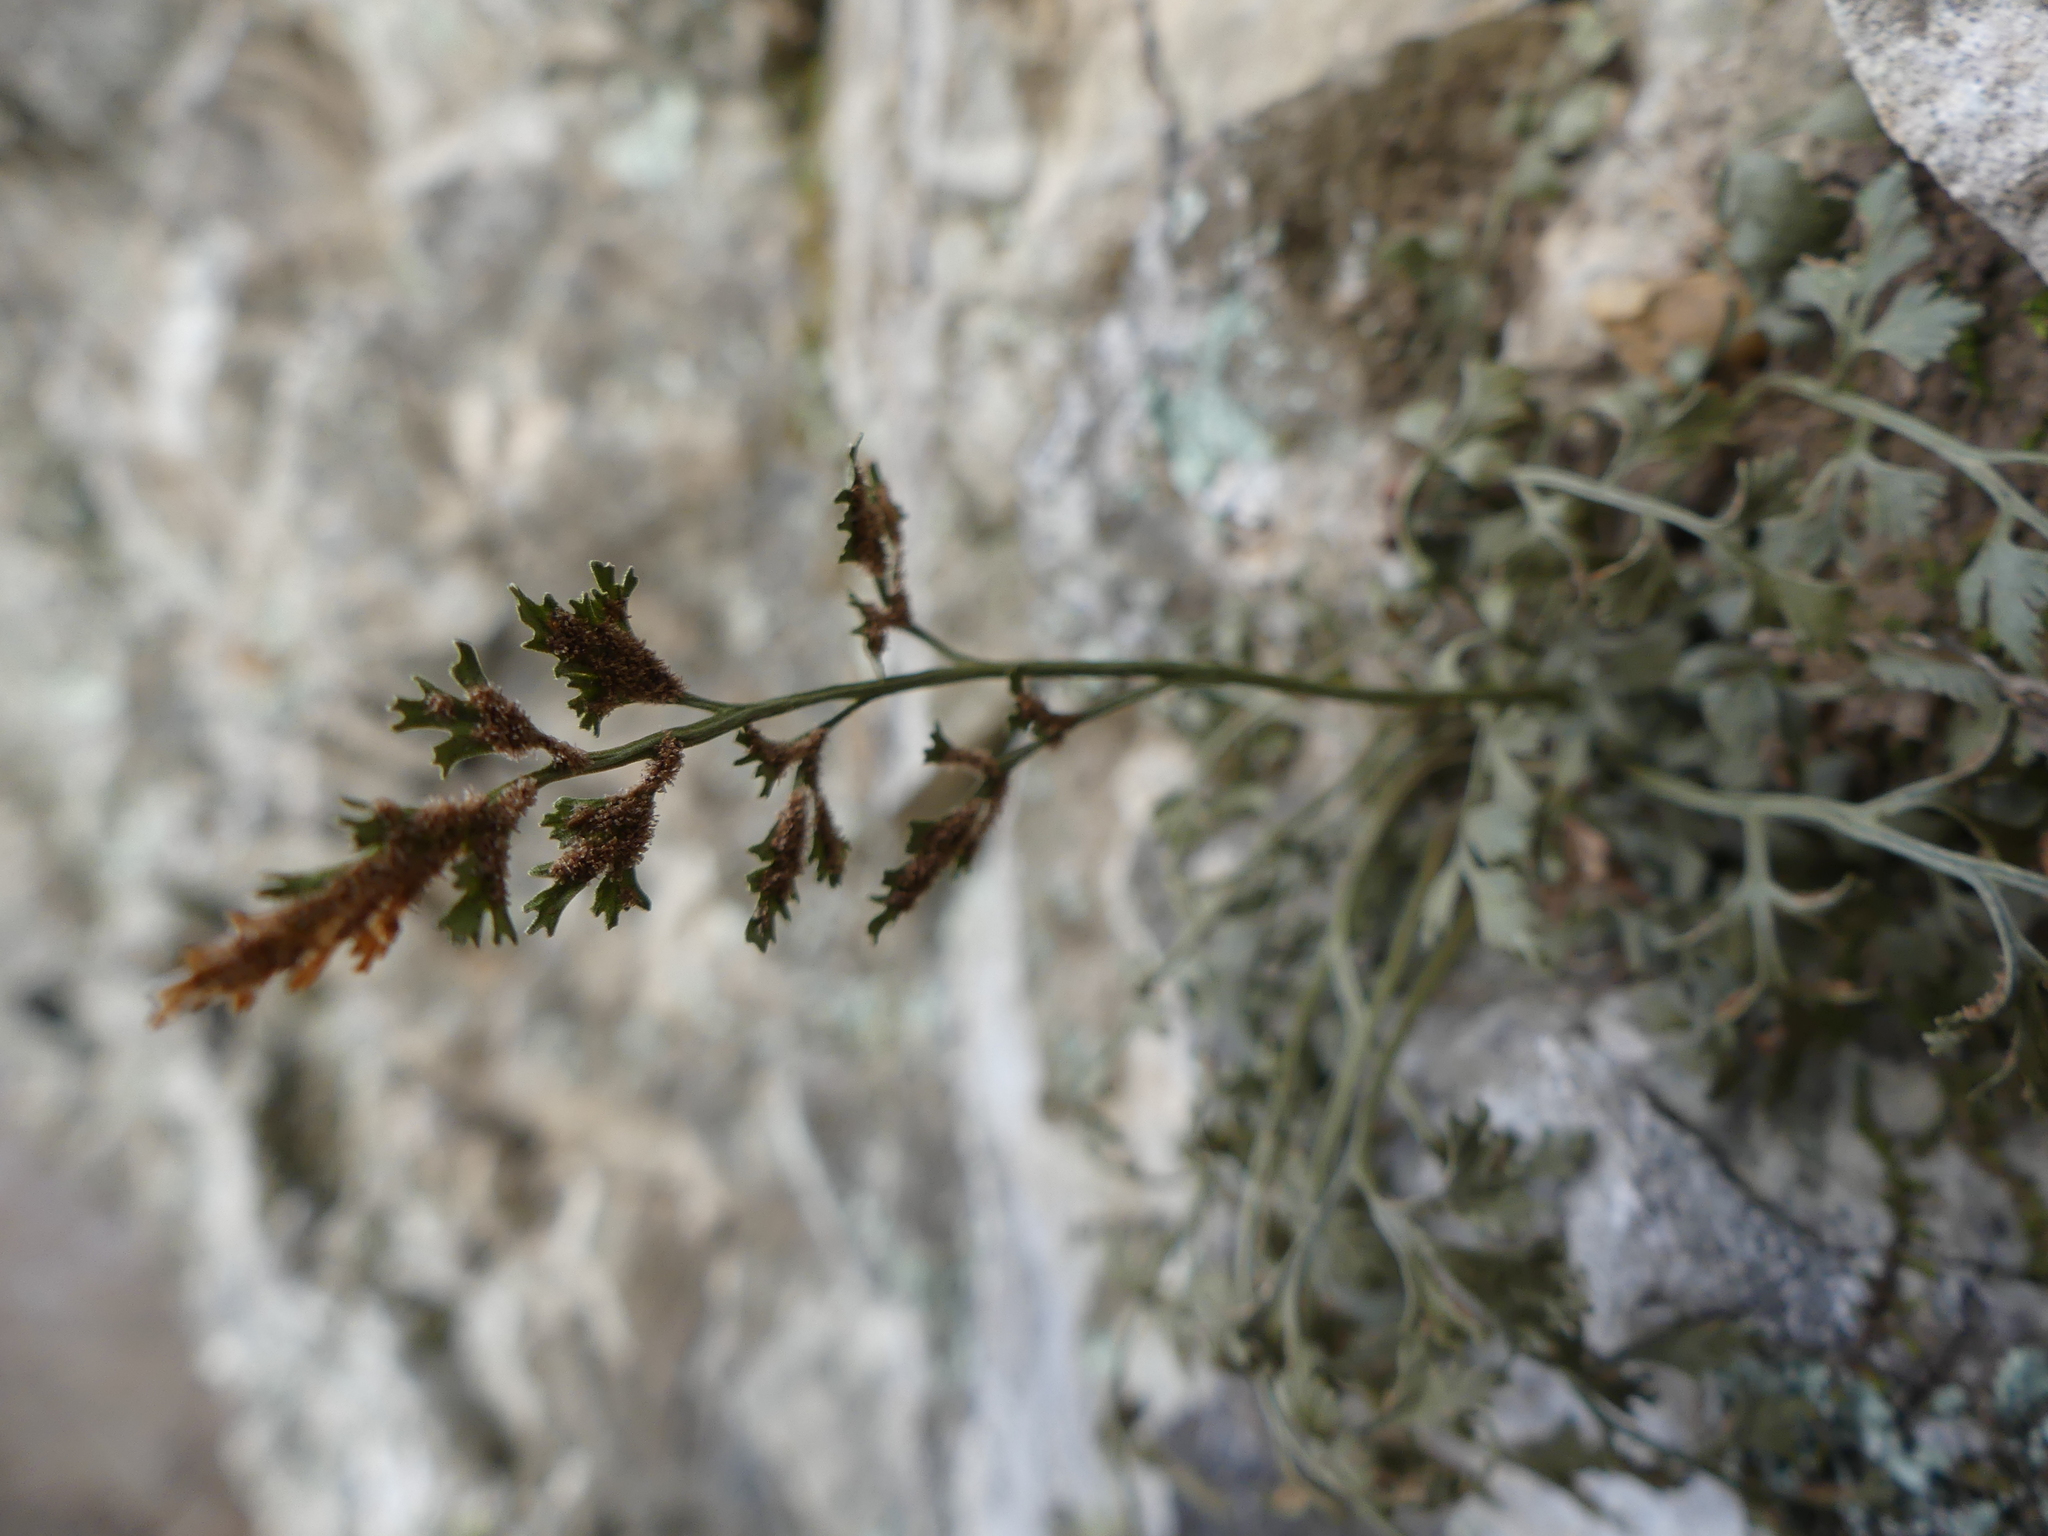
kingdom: Plantae
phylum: Tracheophyta
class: Polypodiopsida
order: Polypodiales
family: Aspleniaceae
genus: Asplenium
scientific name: Asplenium ruta-muraria
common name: Wall-rue
